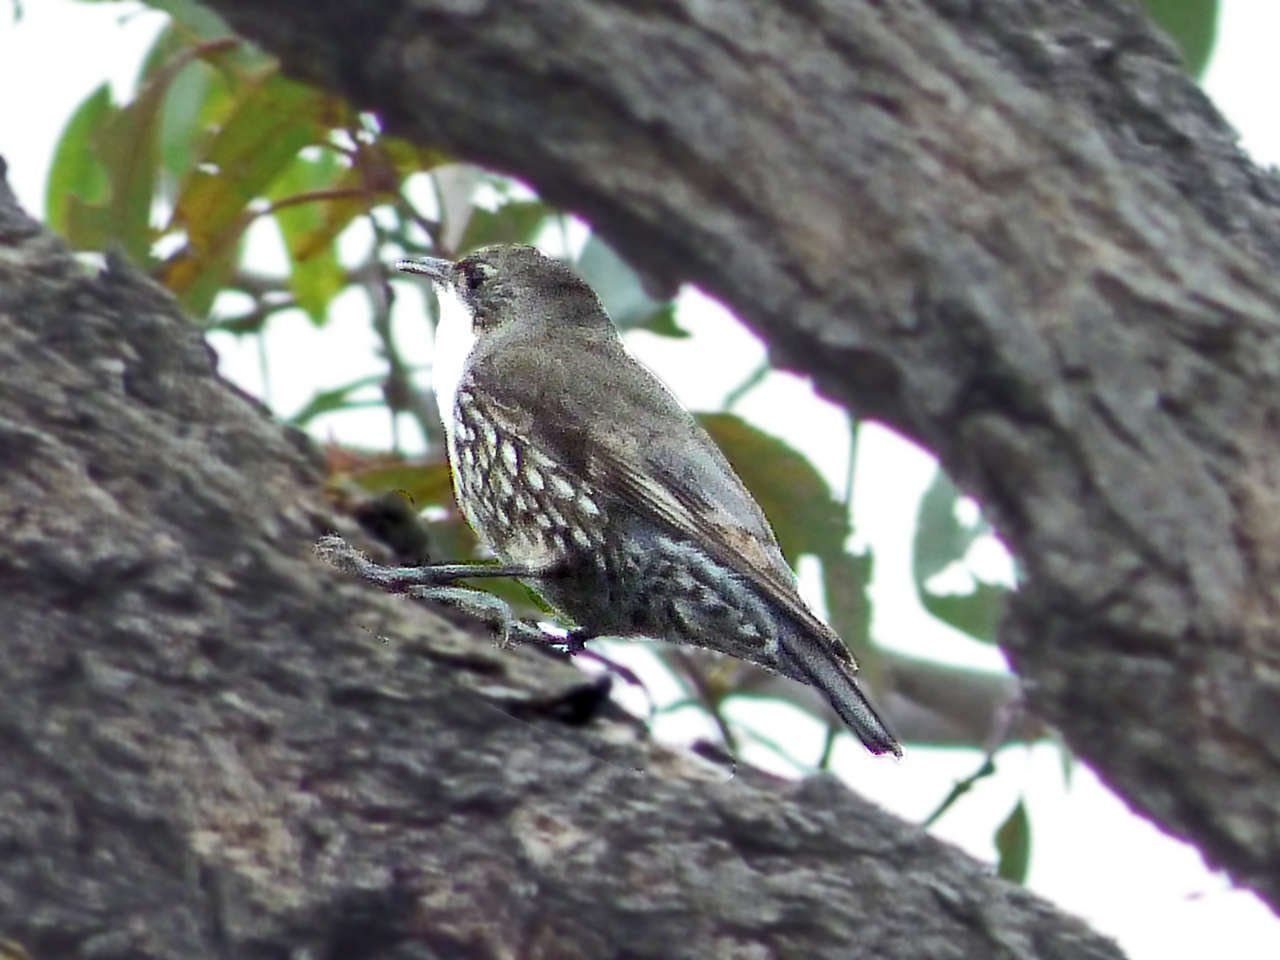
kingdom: Animalia
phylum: Chordata
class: Aves
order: Passeriformes
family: Climacteridae
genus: Cormobates
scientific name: Cormobates leucophaea
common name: White-throated treecreeper
